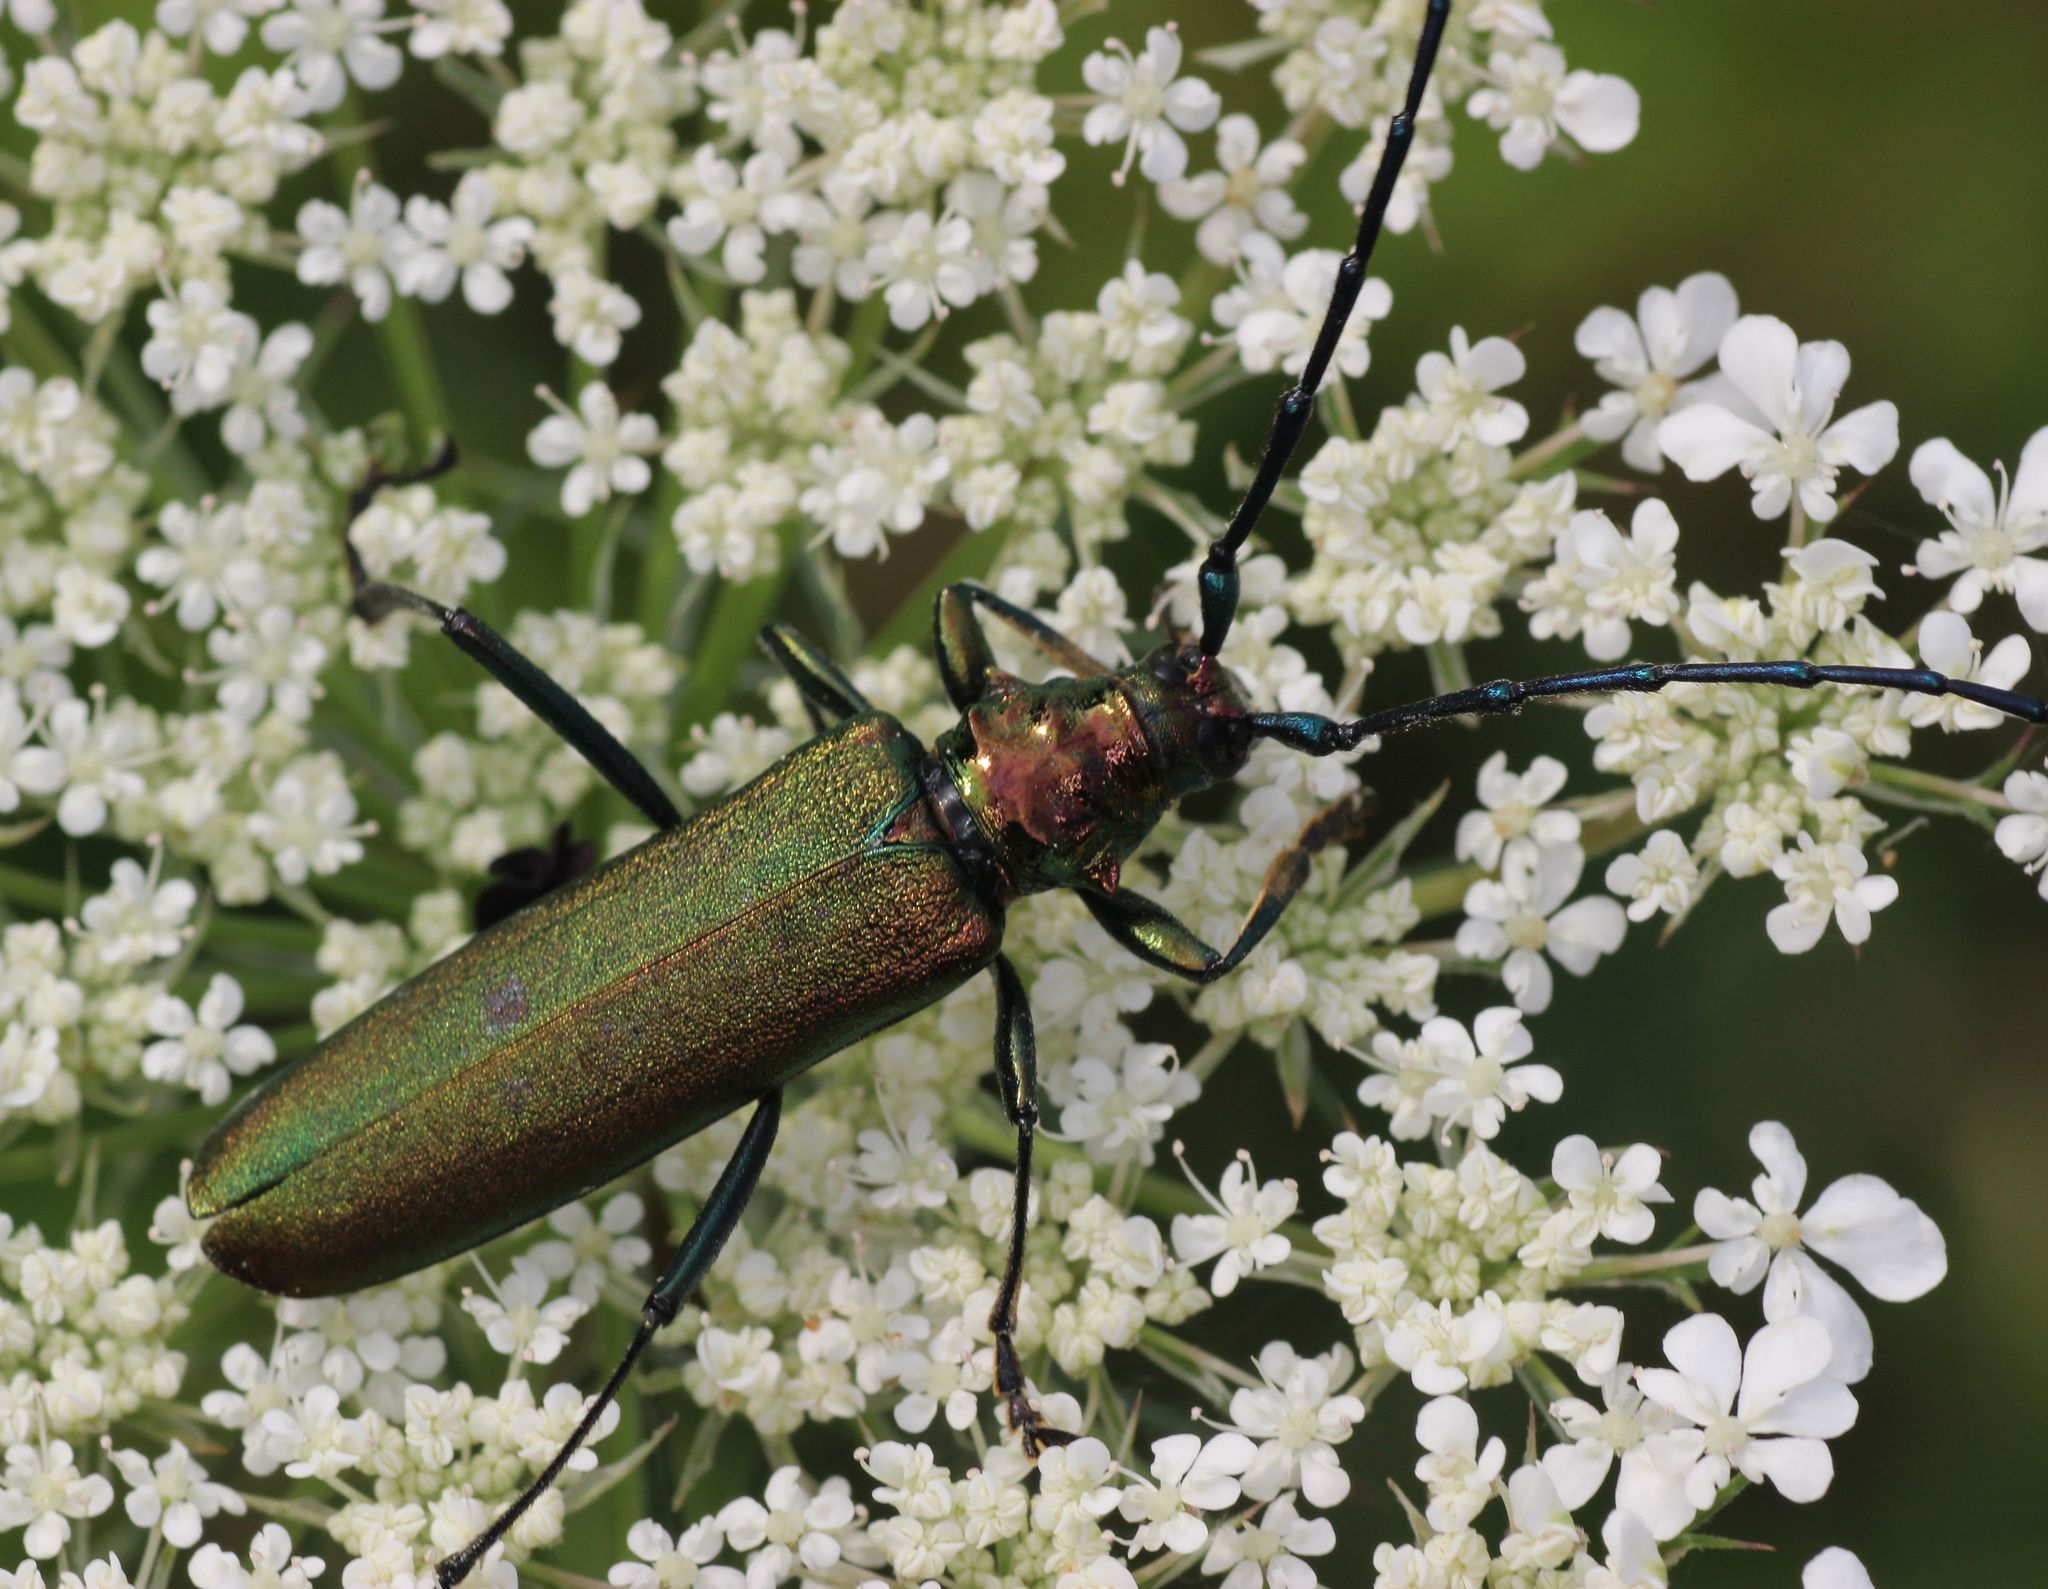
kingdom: Animalia
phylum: Arthropoda
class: Insecta
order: Coleoptera
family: Cerambycidae
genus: Aromia
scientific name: Aromia moschata
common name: Musk beetle
